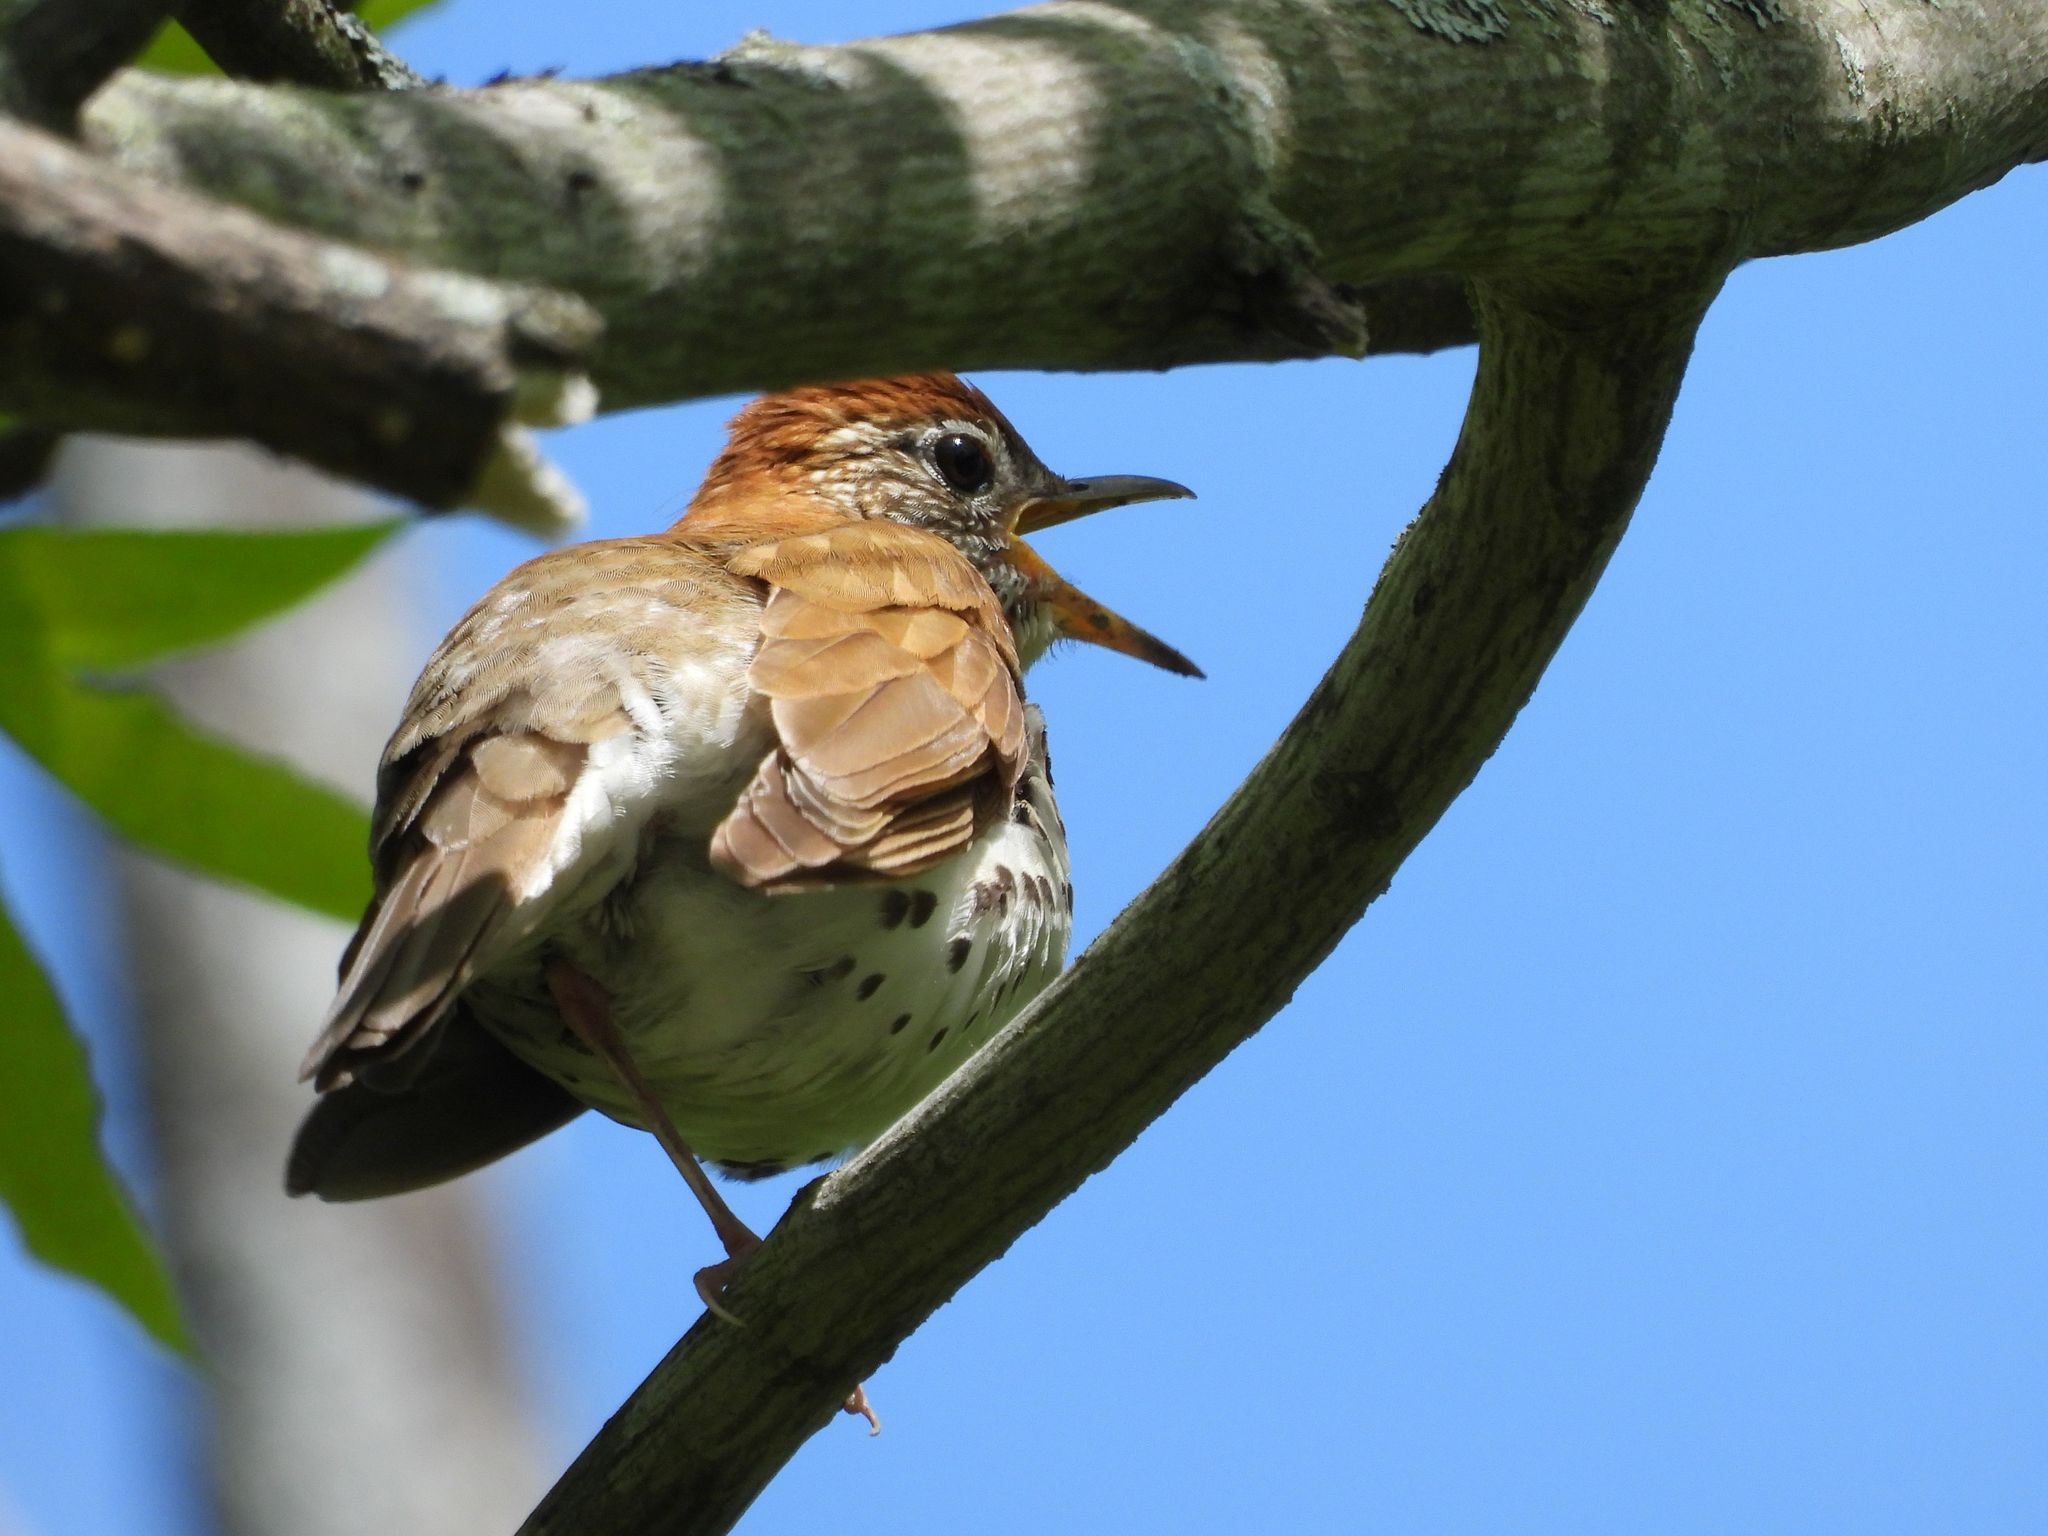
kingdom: Animalia
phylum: Chordata
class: Aves
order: Passeriformes
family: Turdidae
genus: Hylocichla
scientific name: Hylocichla mustelina
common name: Wood thrush
